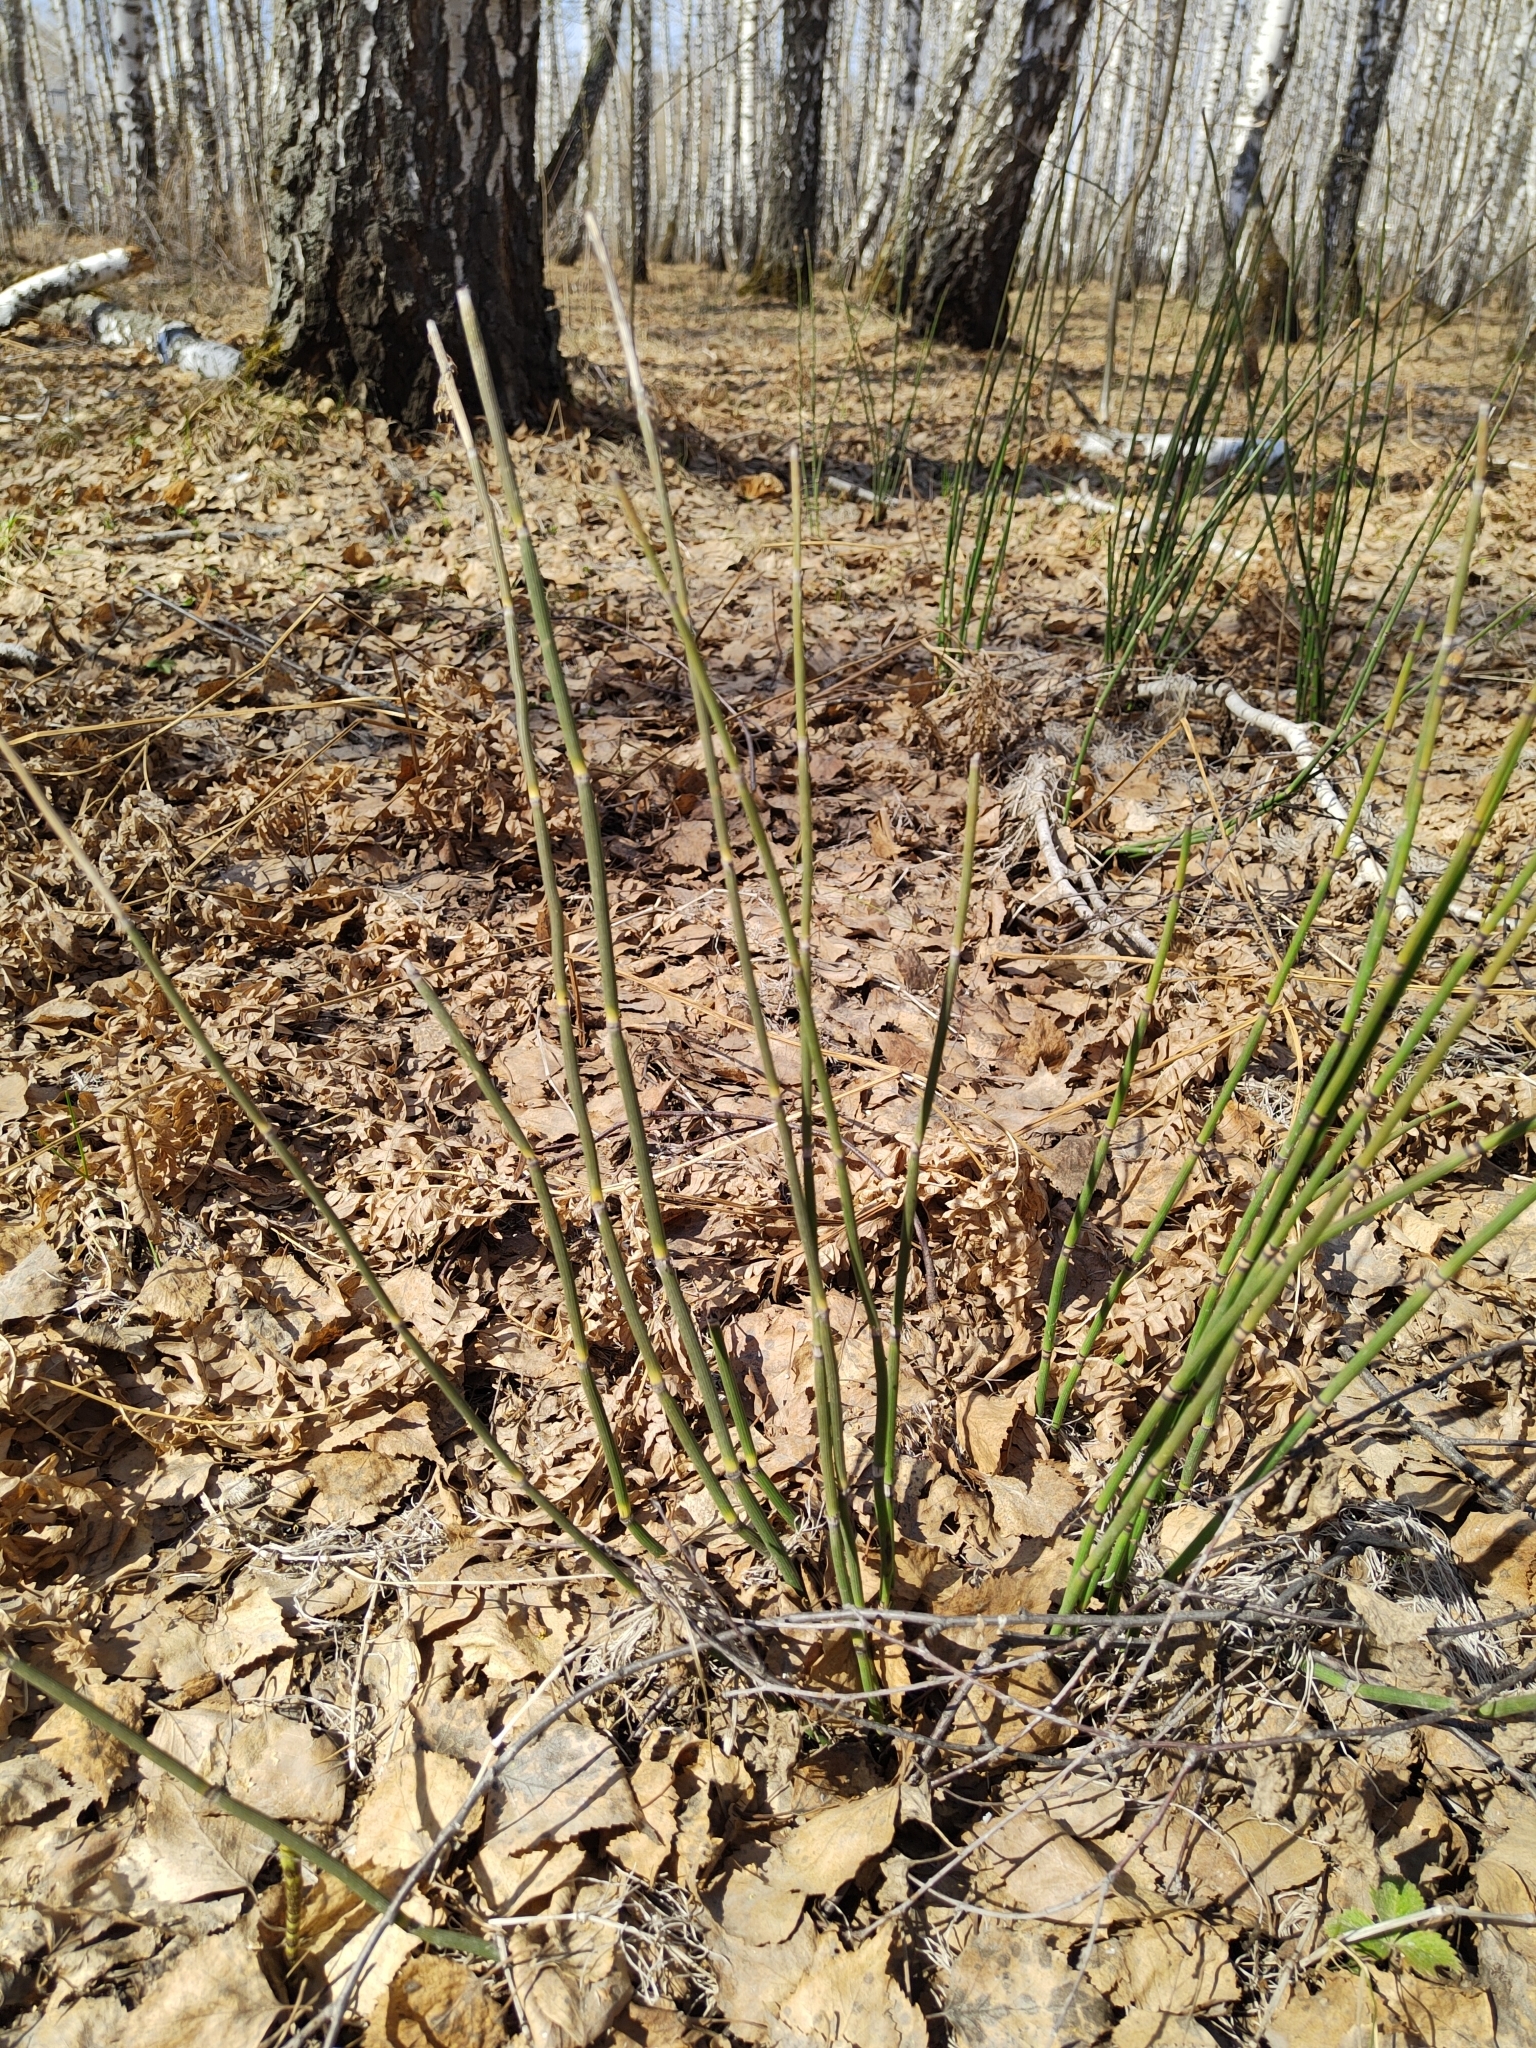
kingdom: Plantae
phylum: Tracheophyta
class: Polypodiopsida
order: Equisetales
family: Equisetaceae
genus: Equisetum
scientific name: Equisetum hyemale
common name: Rough horsetail
